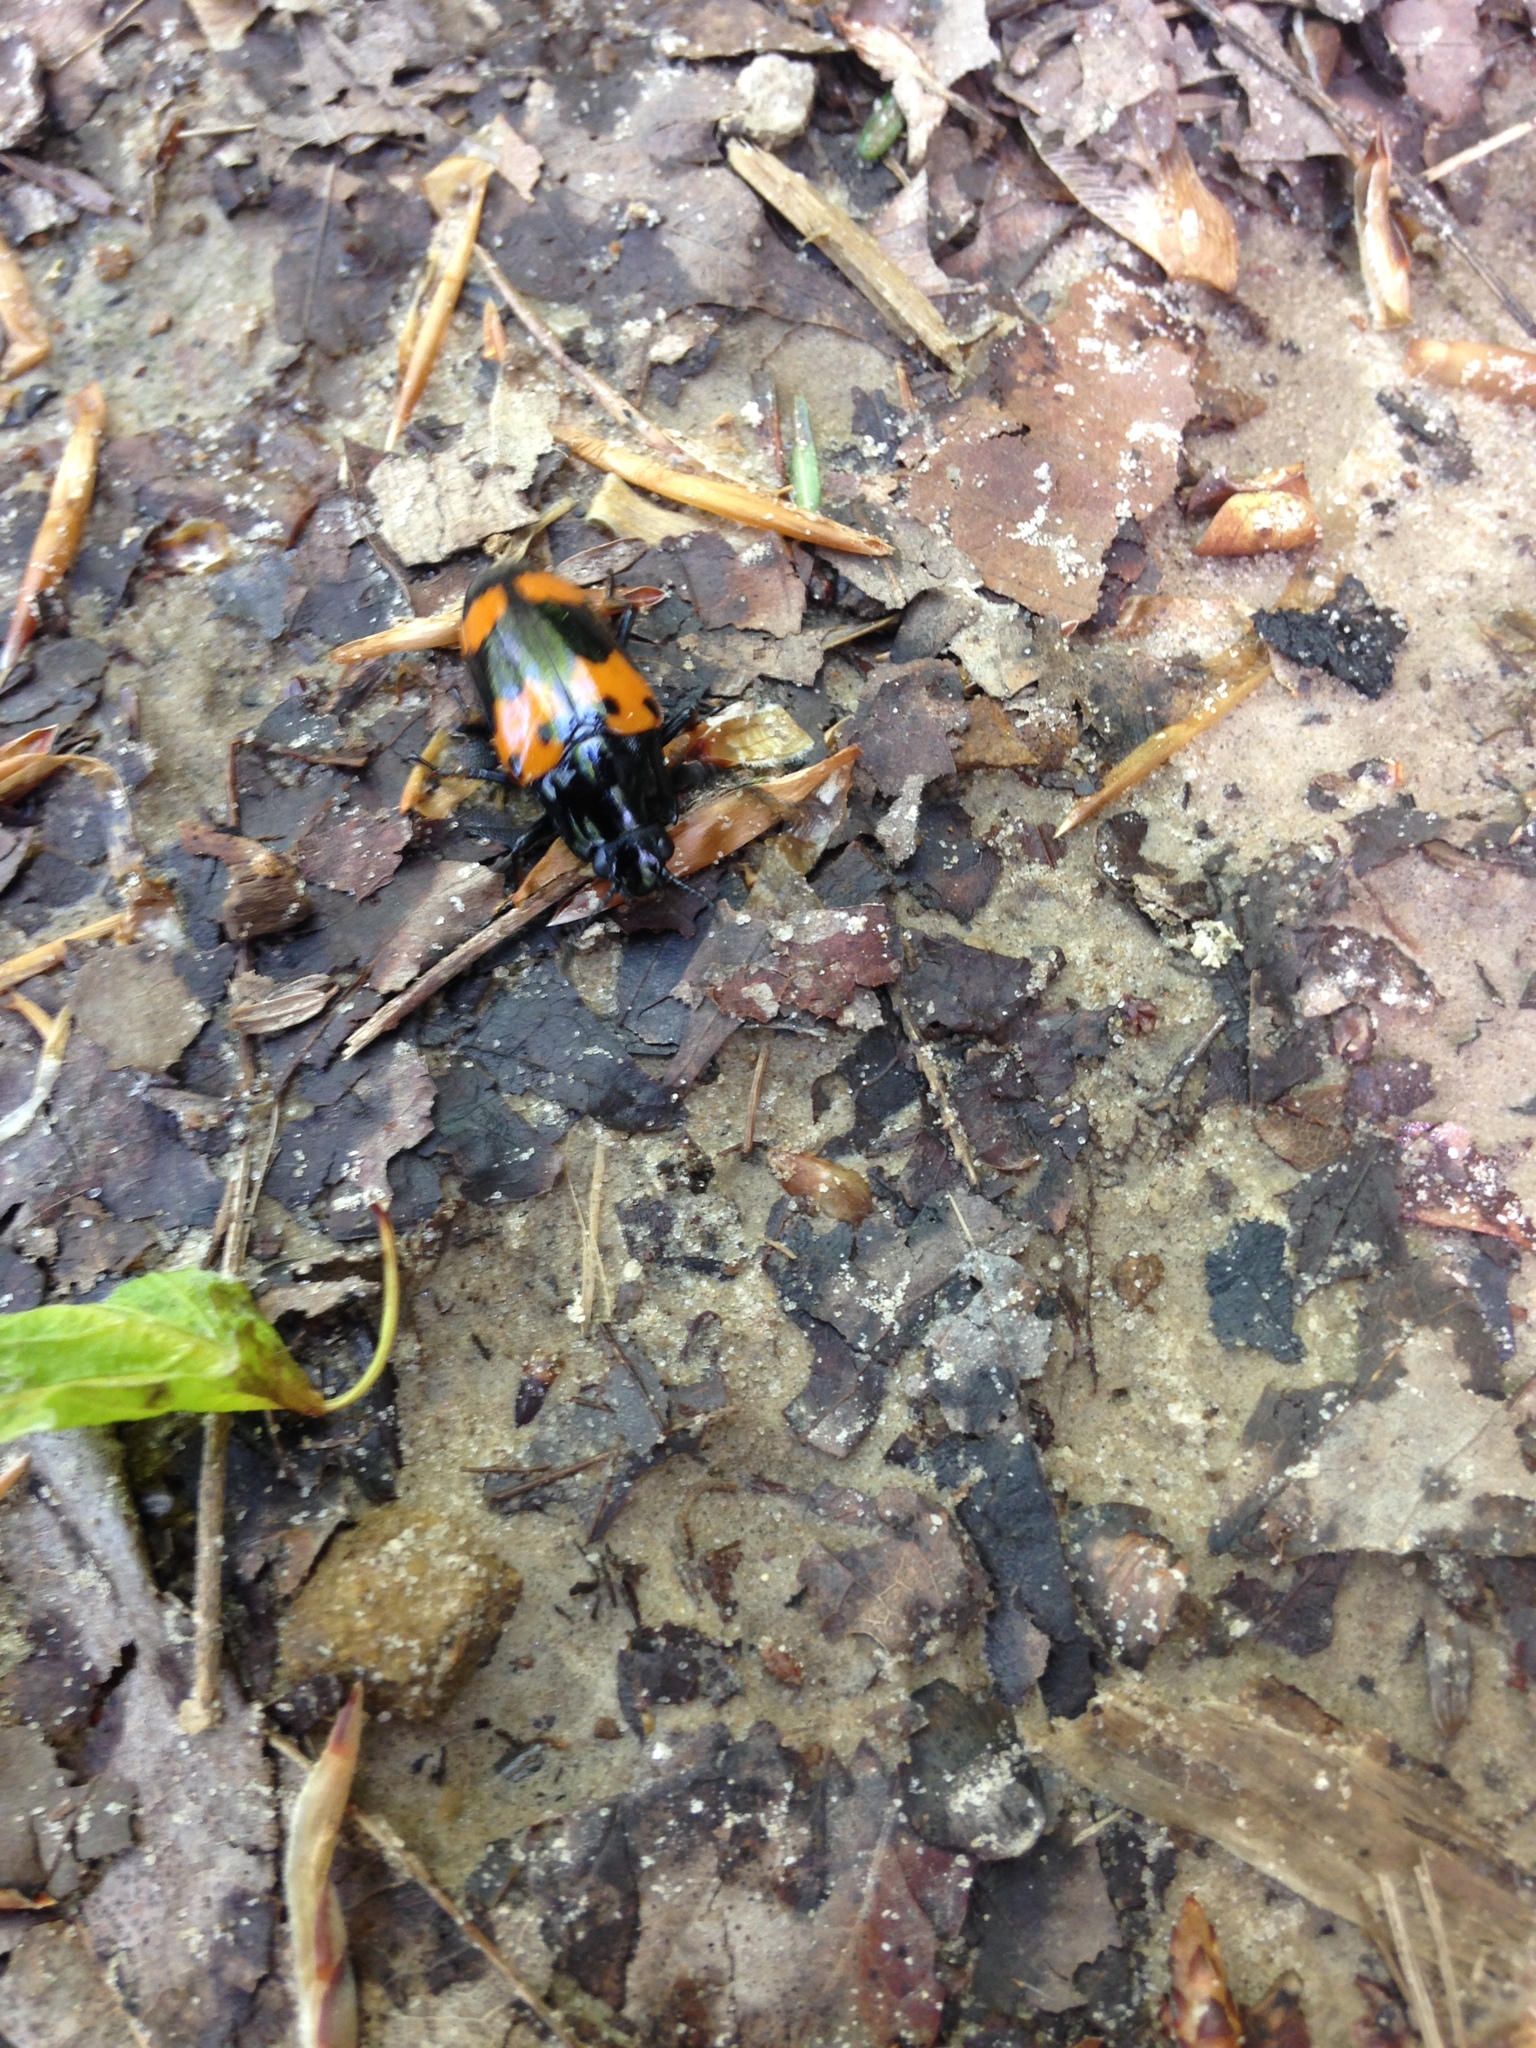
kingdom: Animalia
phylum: Arthropoda
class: Insecta
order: Coleoptera
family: Erotylidae
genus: Megalodacne
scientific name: Megalodacne heros
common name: Pleasing fungus beetle
